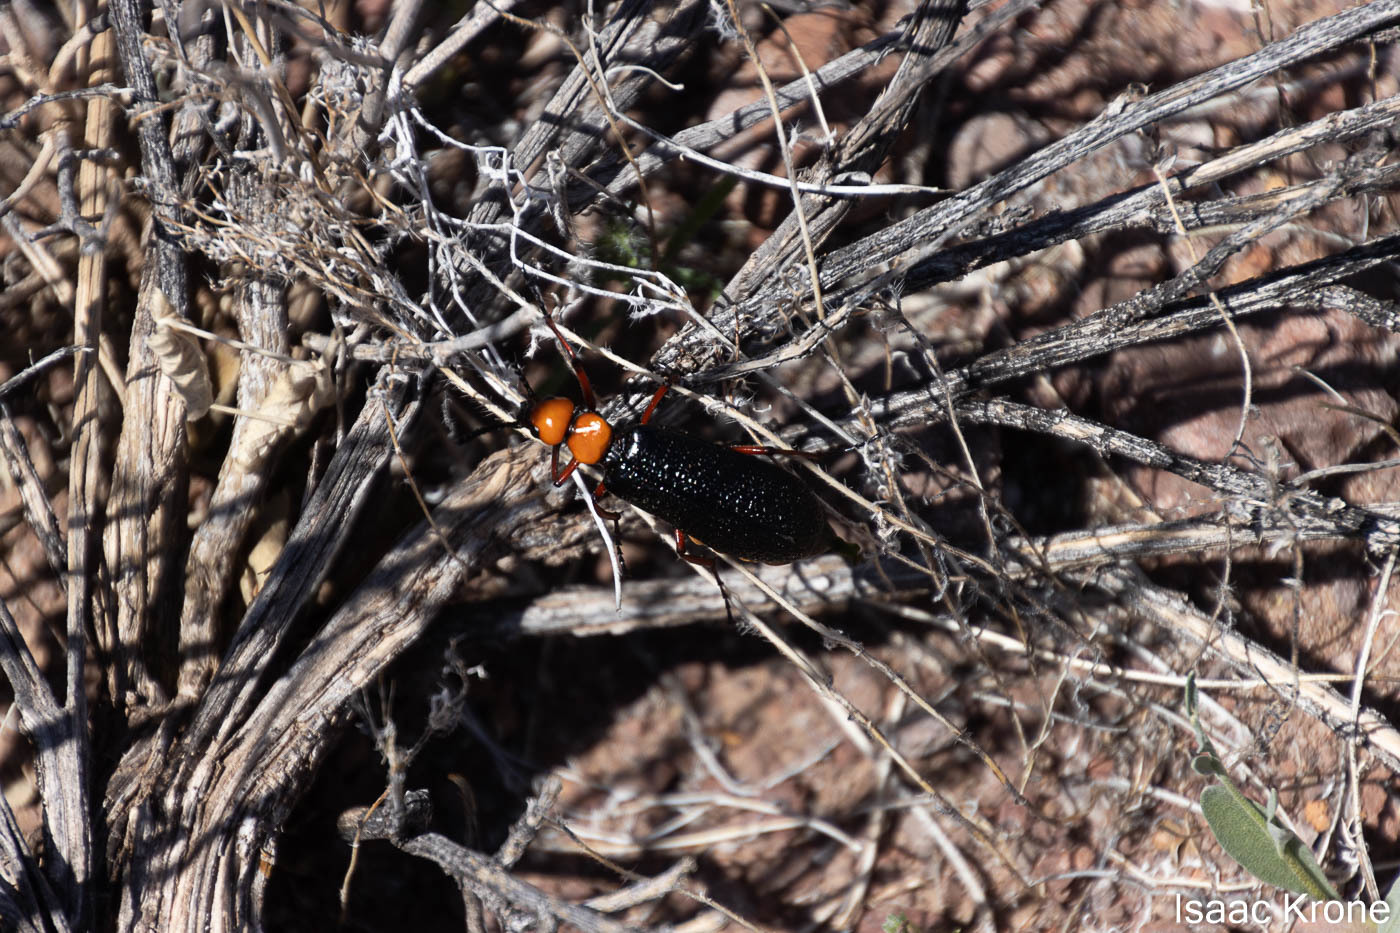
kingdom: Animalia
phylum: Arthropoda
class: Insecta
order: Coleoptera
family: Meloidae
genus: Lytta
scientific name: Lytta magister
